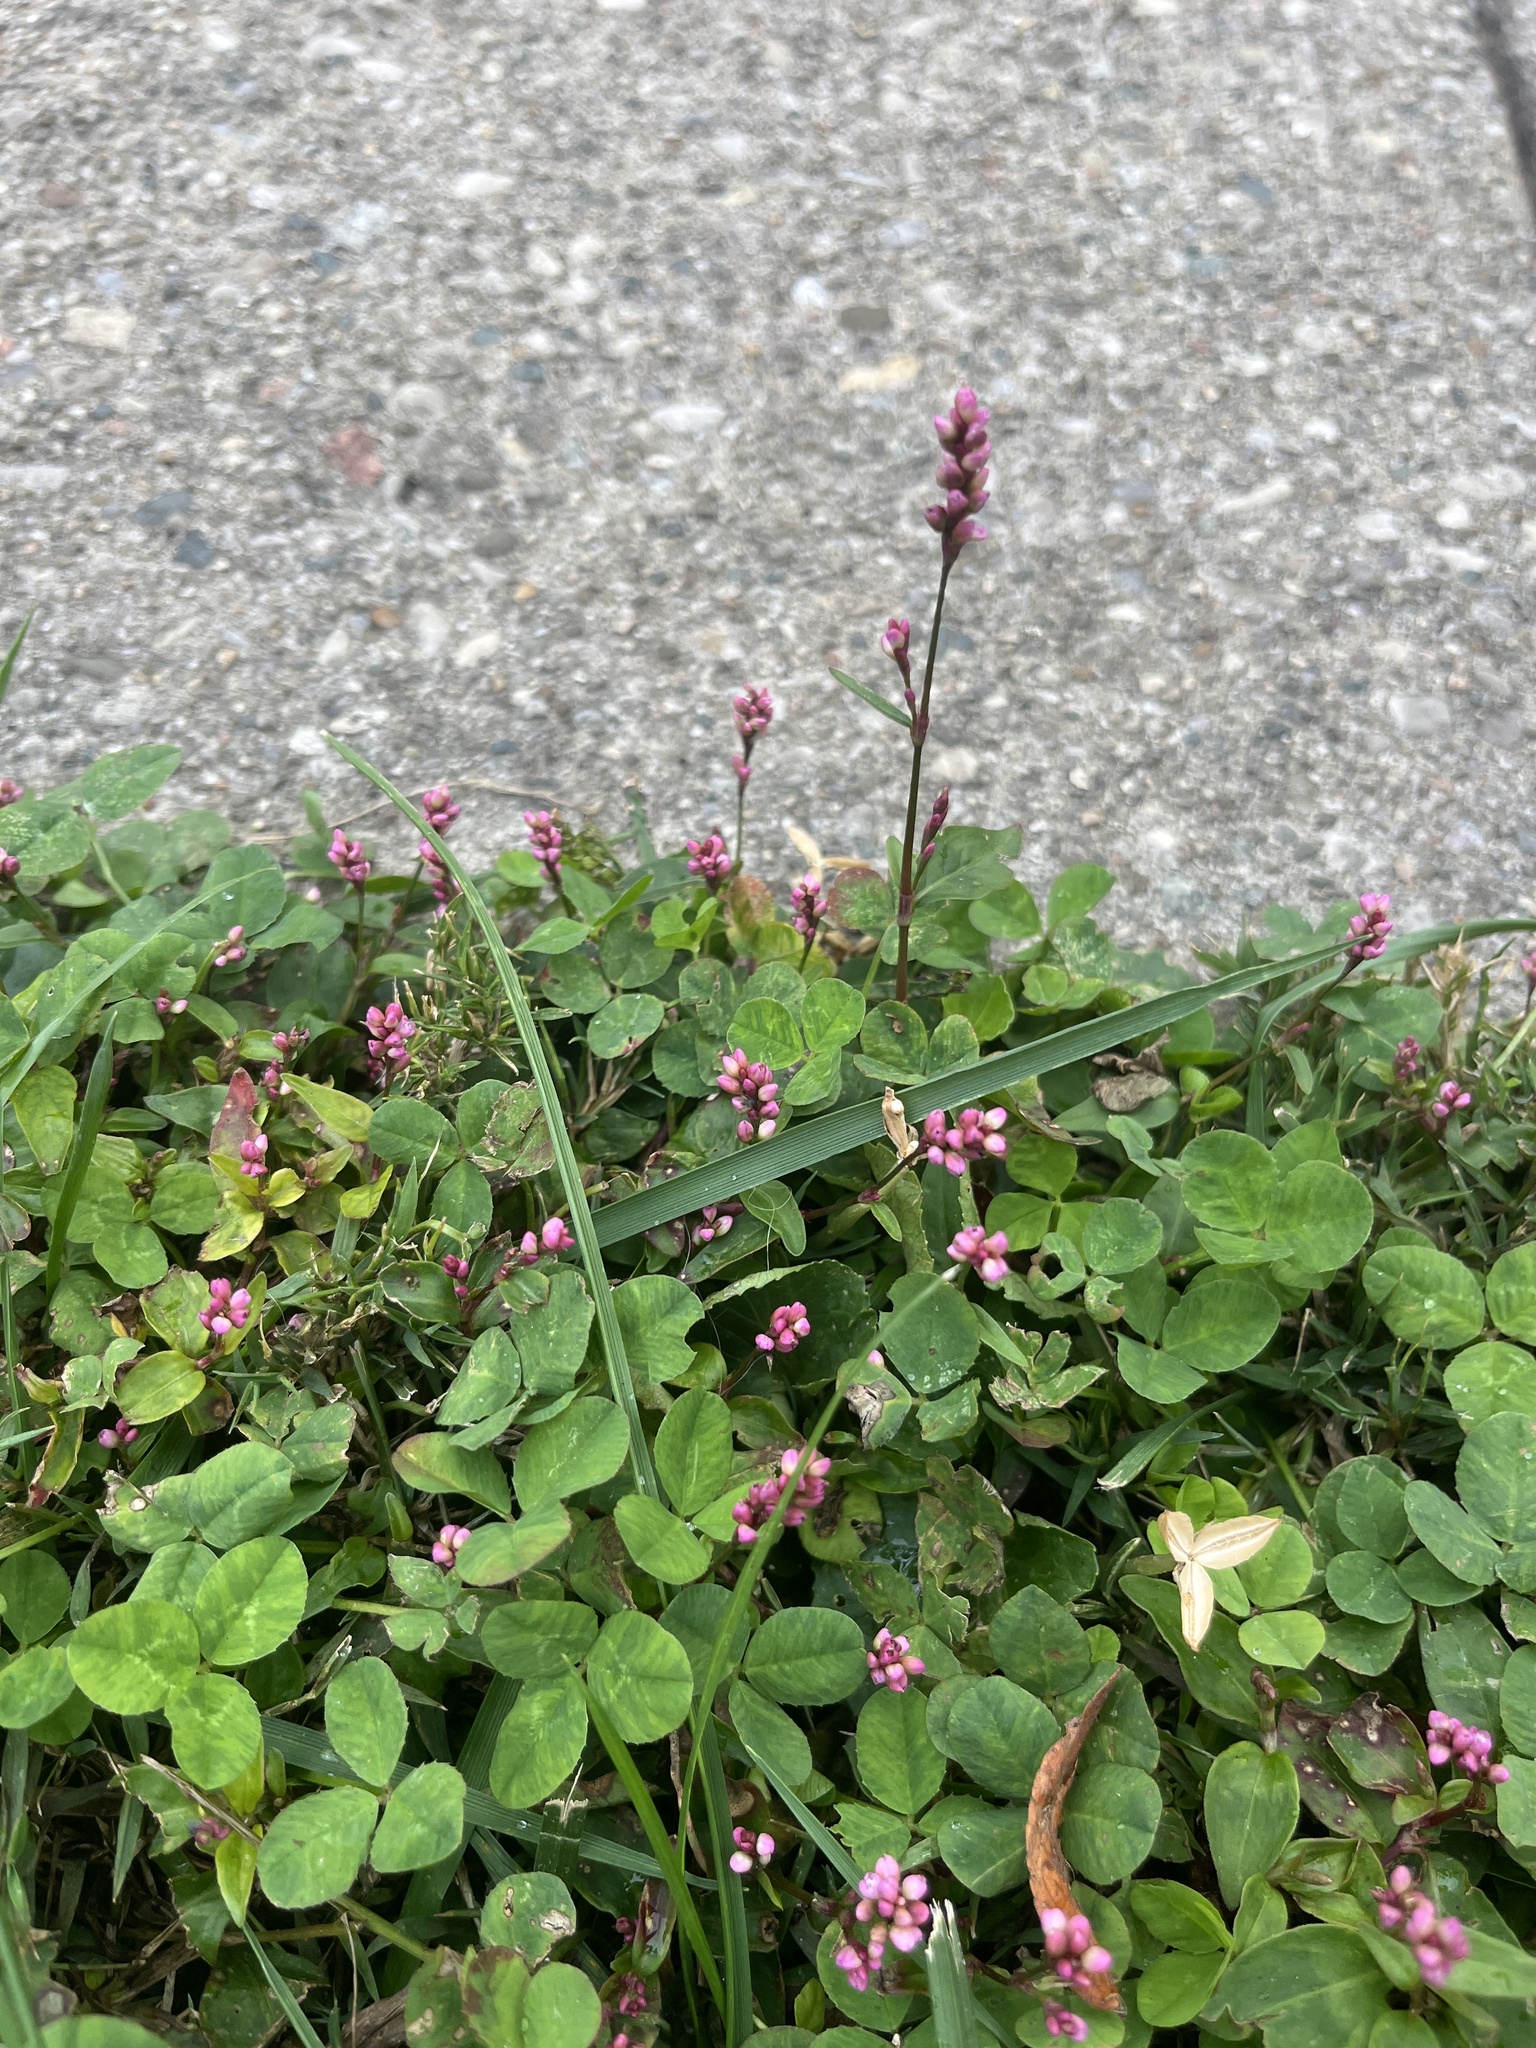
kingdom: Plantae
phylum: Tracheophyta
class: Magnoliopsida
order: Caryophyllales
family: Polygonaceae
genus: Persicaria
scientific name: Persicaria longiseta
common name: Bristly lady's-thumb
